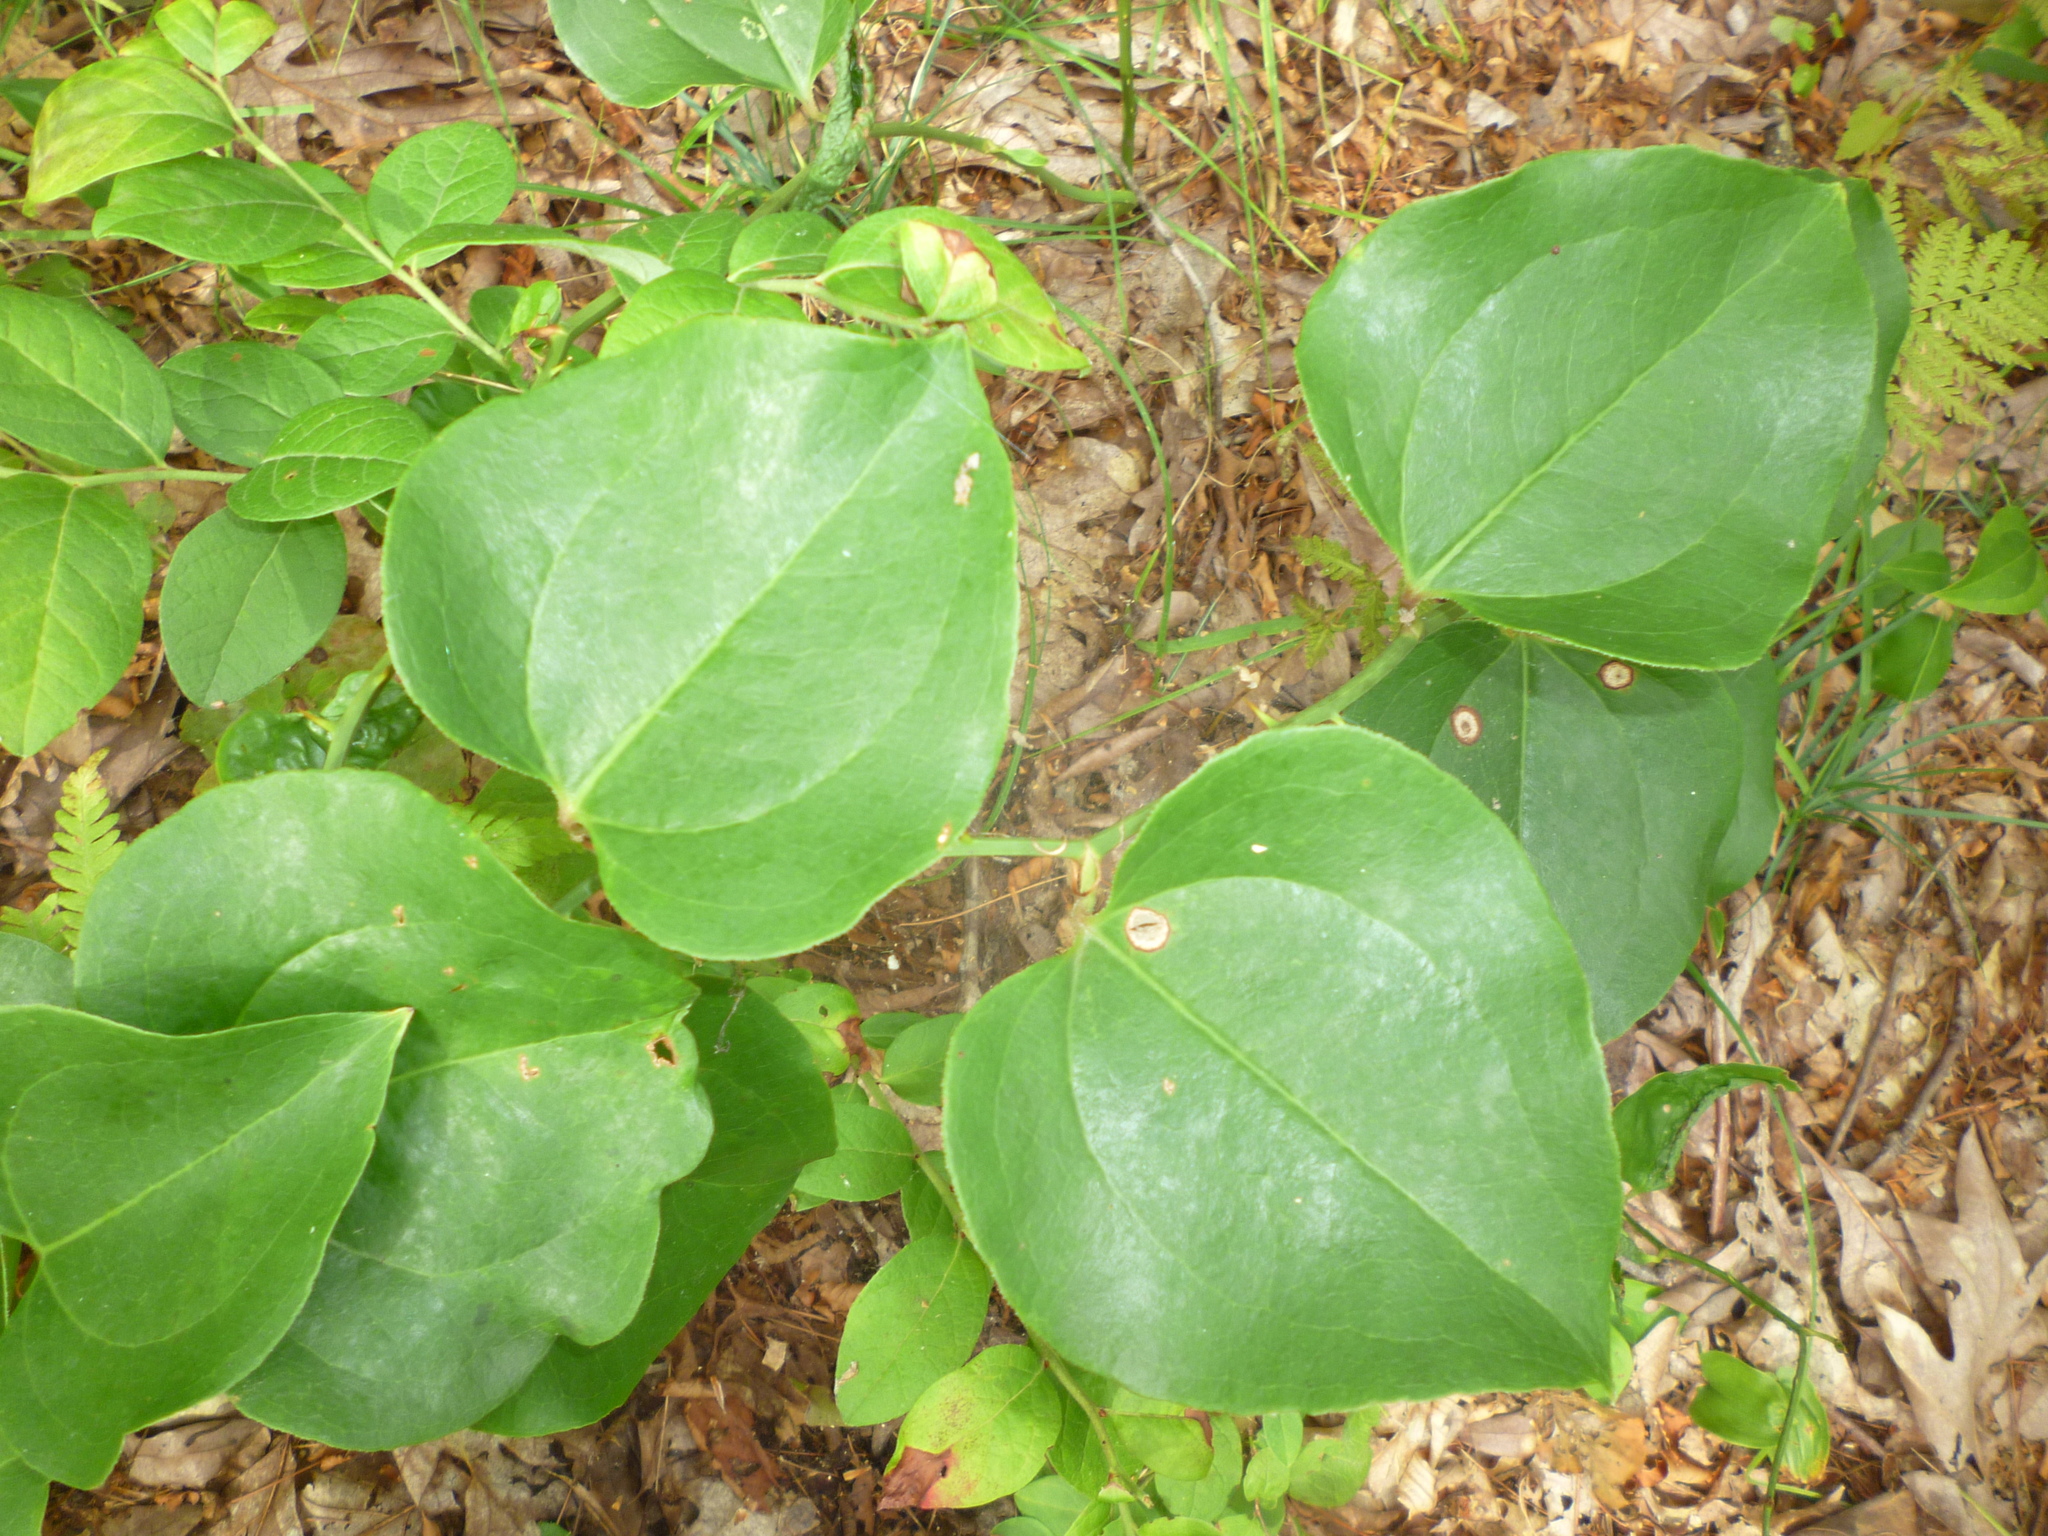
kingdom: Plantae
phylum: Tracheophyta
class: Liliopsida
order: Liliales
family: Smilacaceae
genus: Smilax
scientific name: Smilax rotundifolia
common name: Bullbriar
